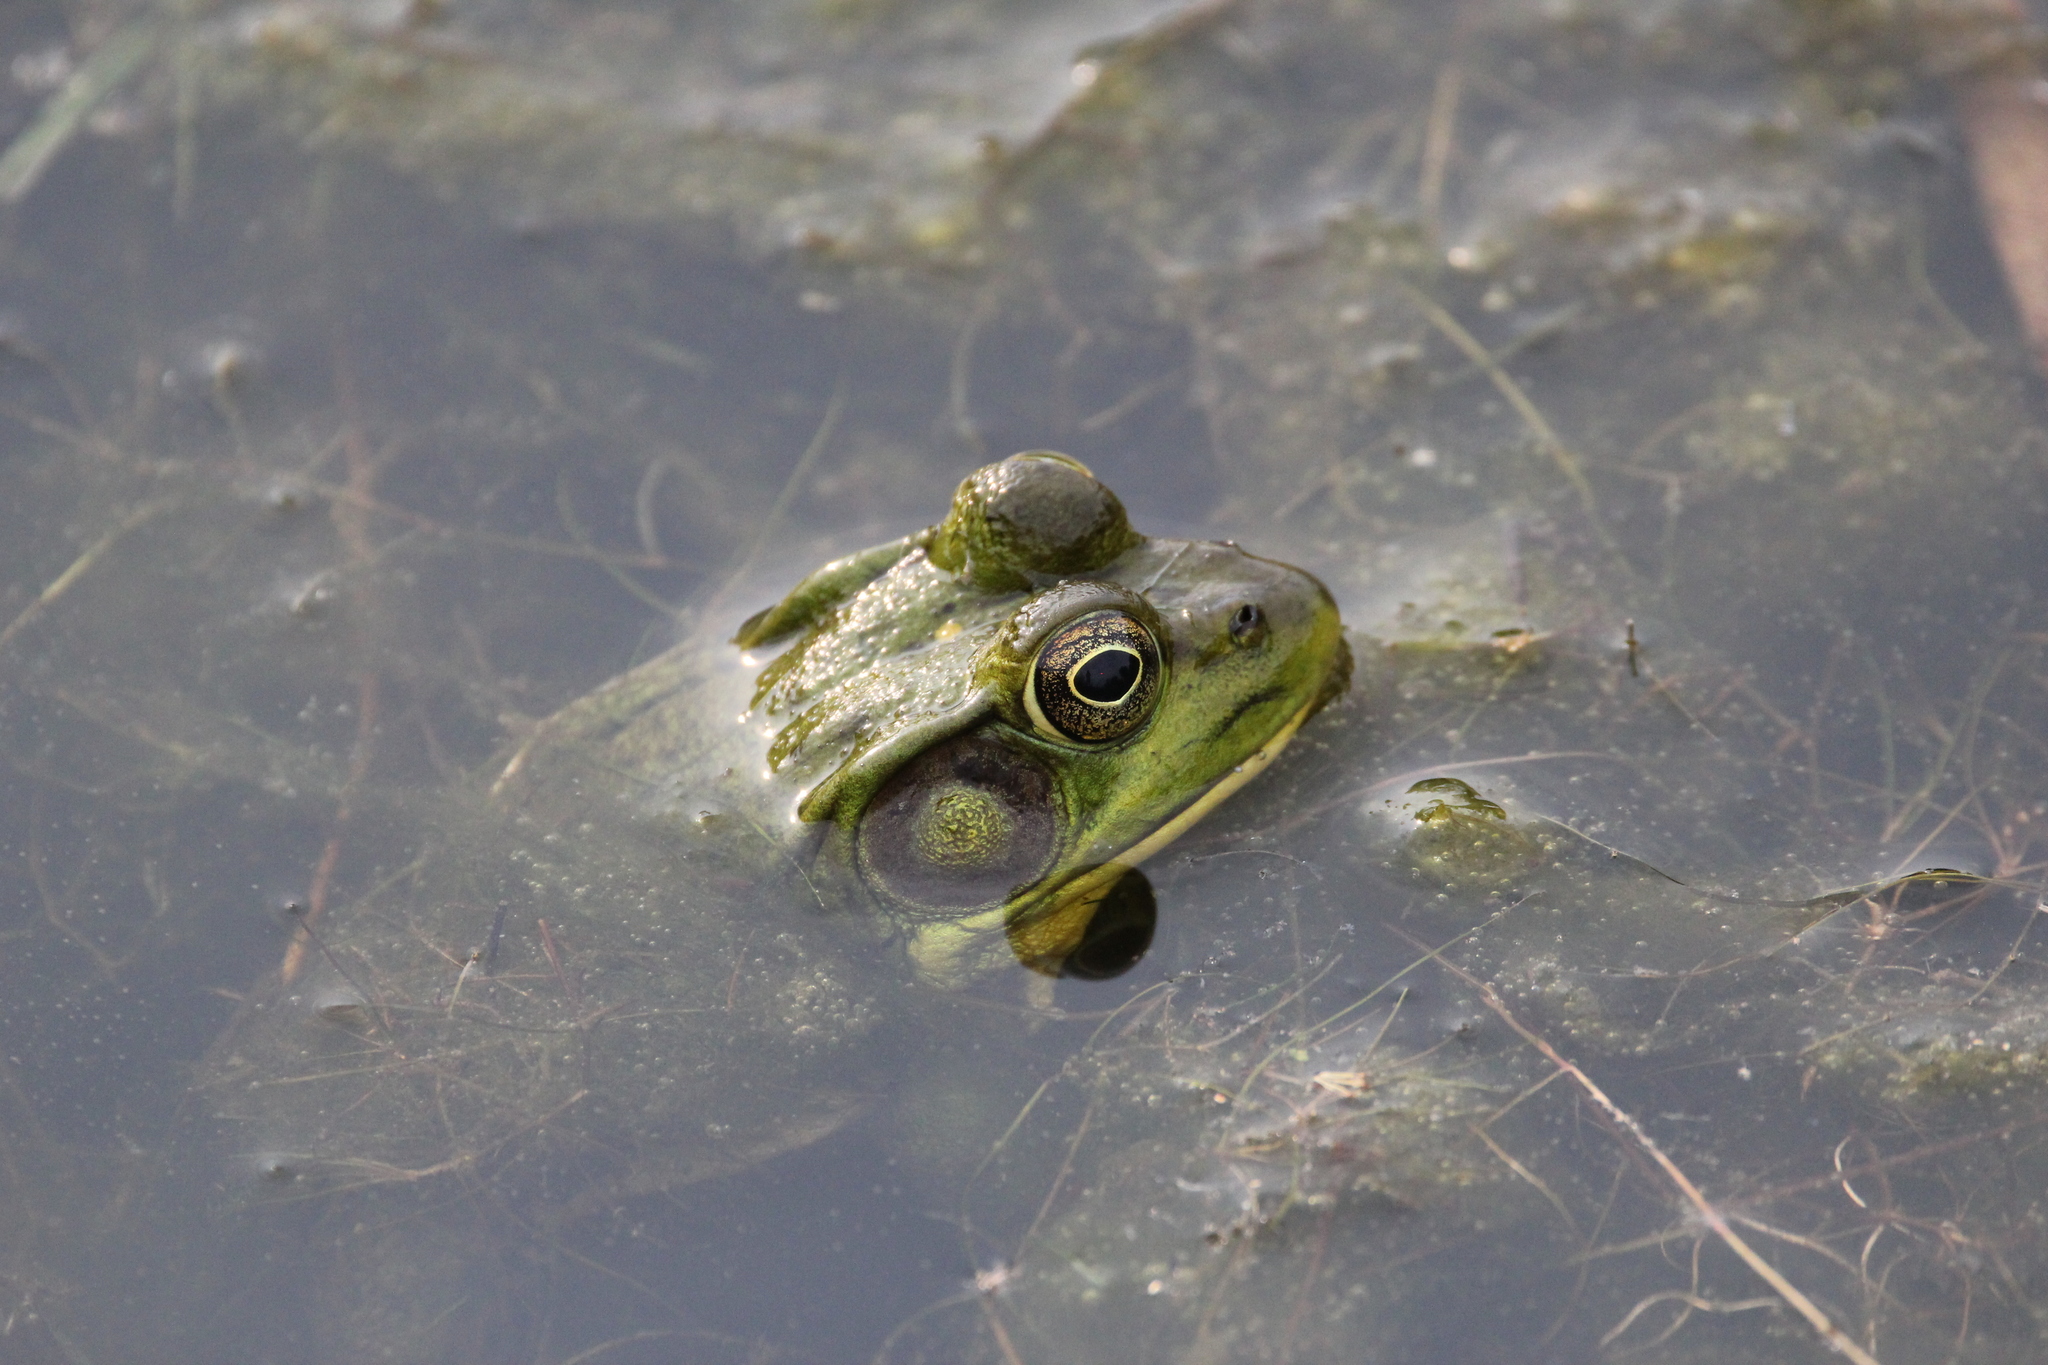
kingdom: Animalia
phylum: Chordata
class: Amphibia
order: Anura
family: Ranidae
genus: Lithobates
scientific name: Lithobates clamitans
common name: Green frog
